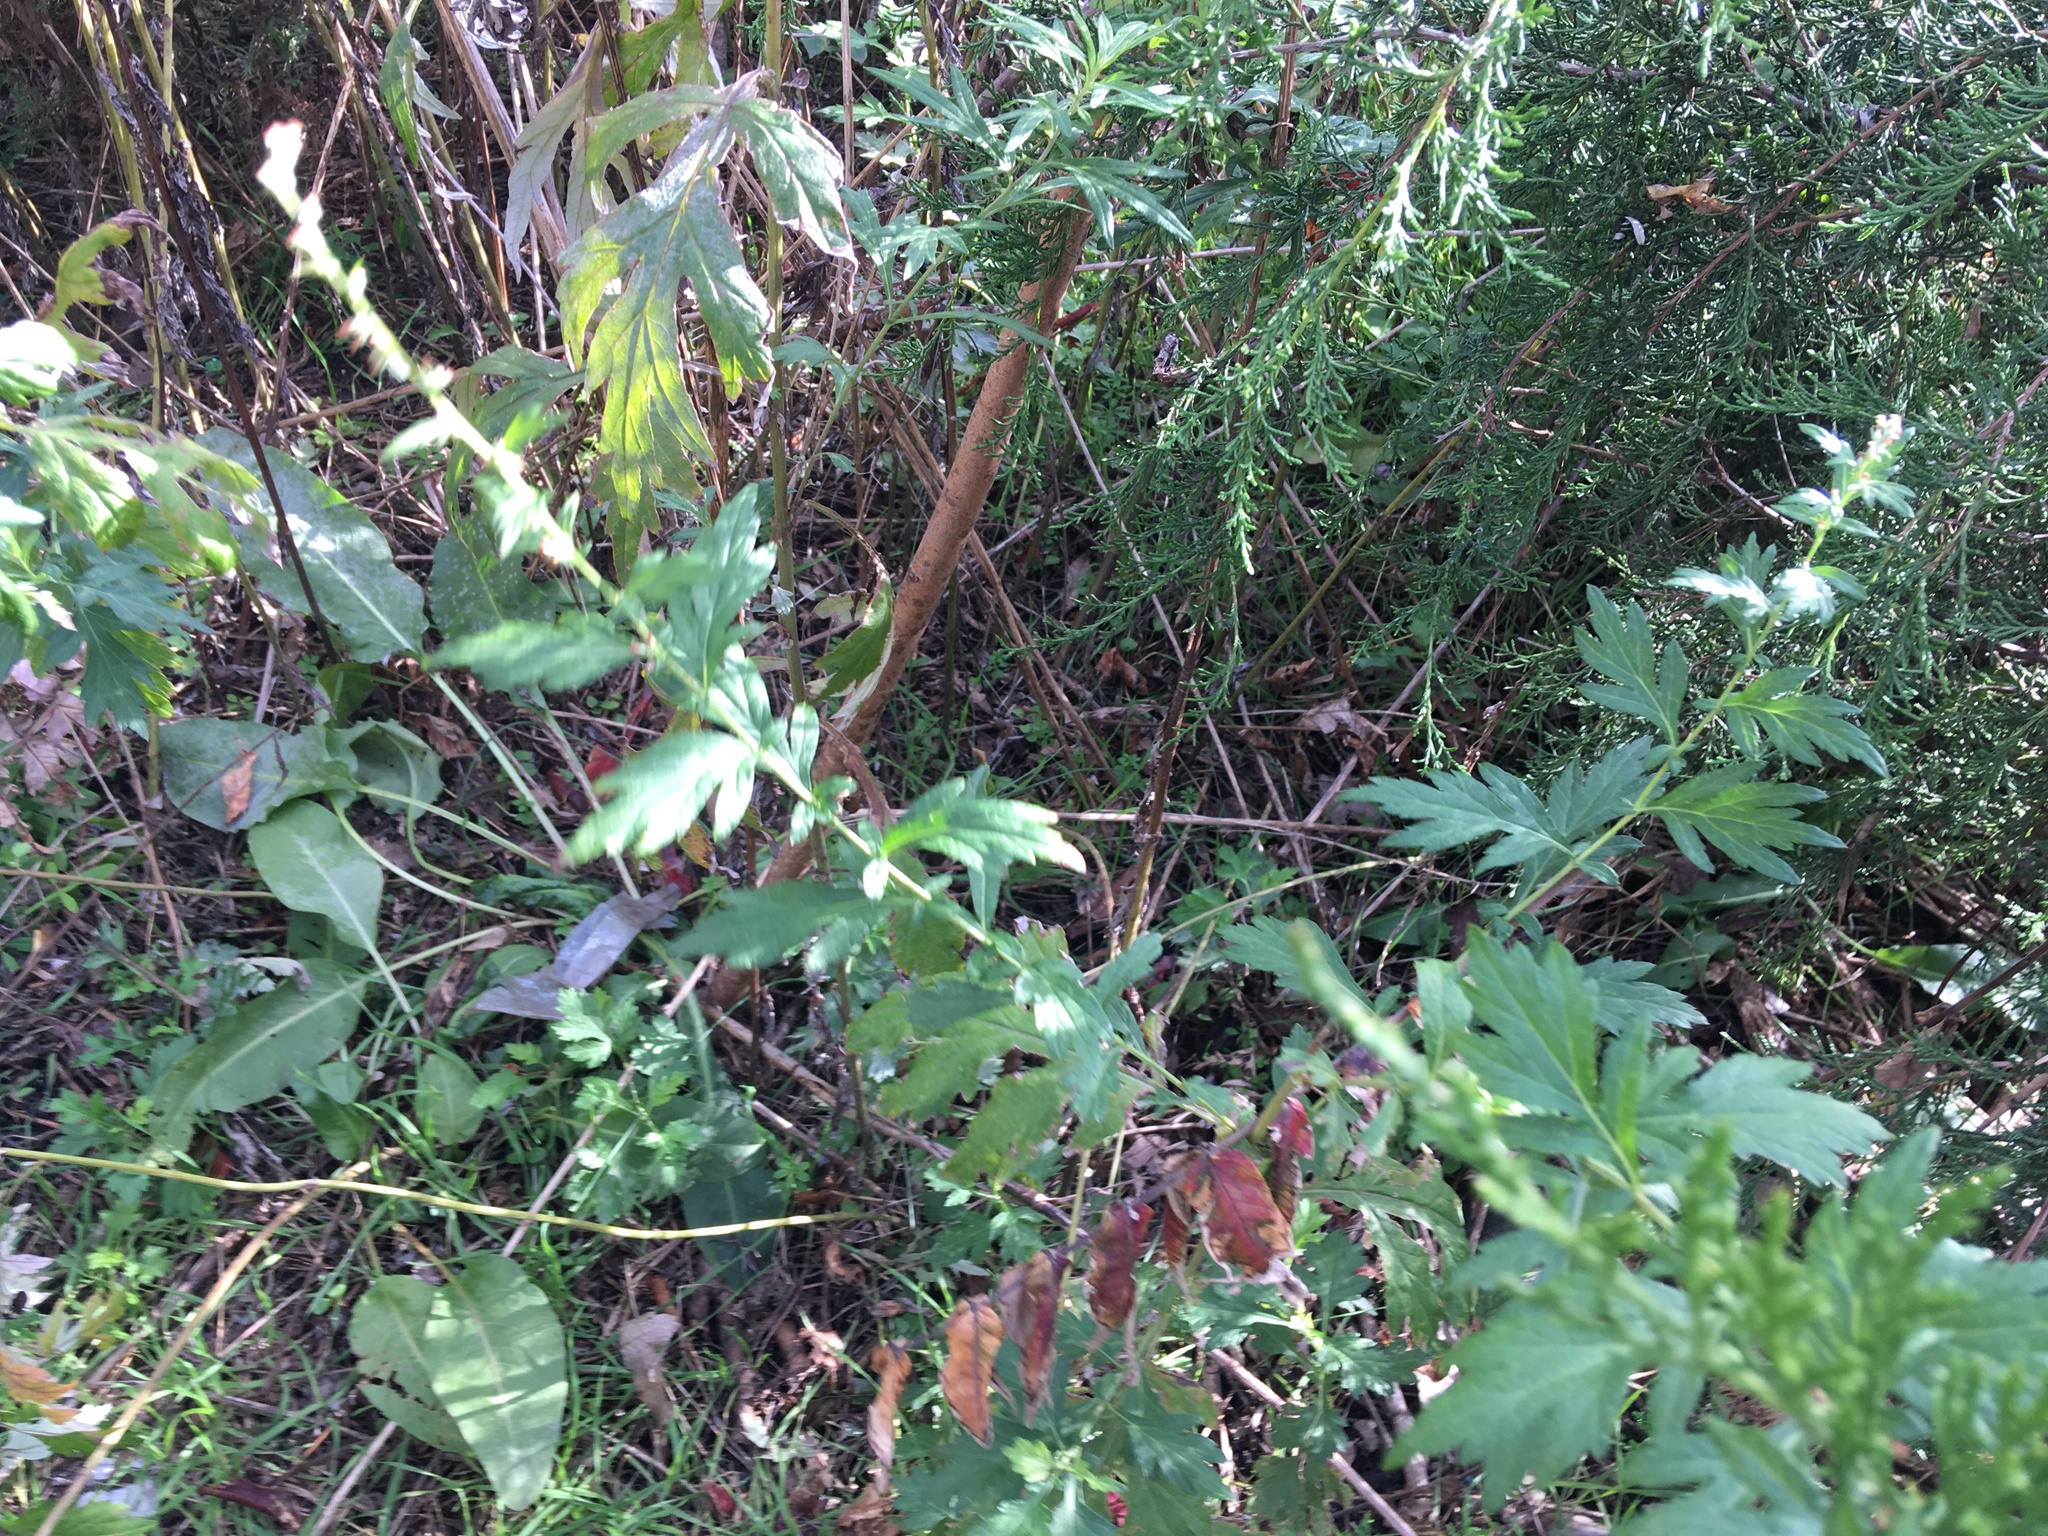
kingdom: Plantae
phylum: Tracheophyta
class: Magnoliopsida
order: Asterales
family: Asteraceae
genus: Artemisia
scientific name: Artemisia vulgaris
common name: Mugwort
